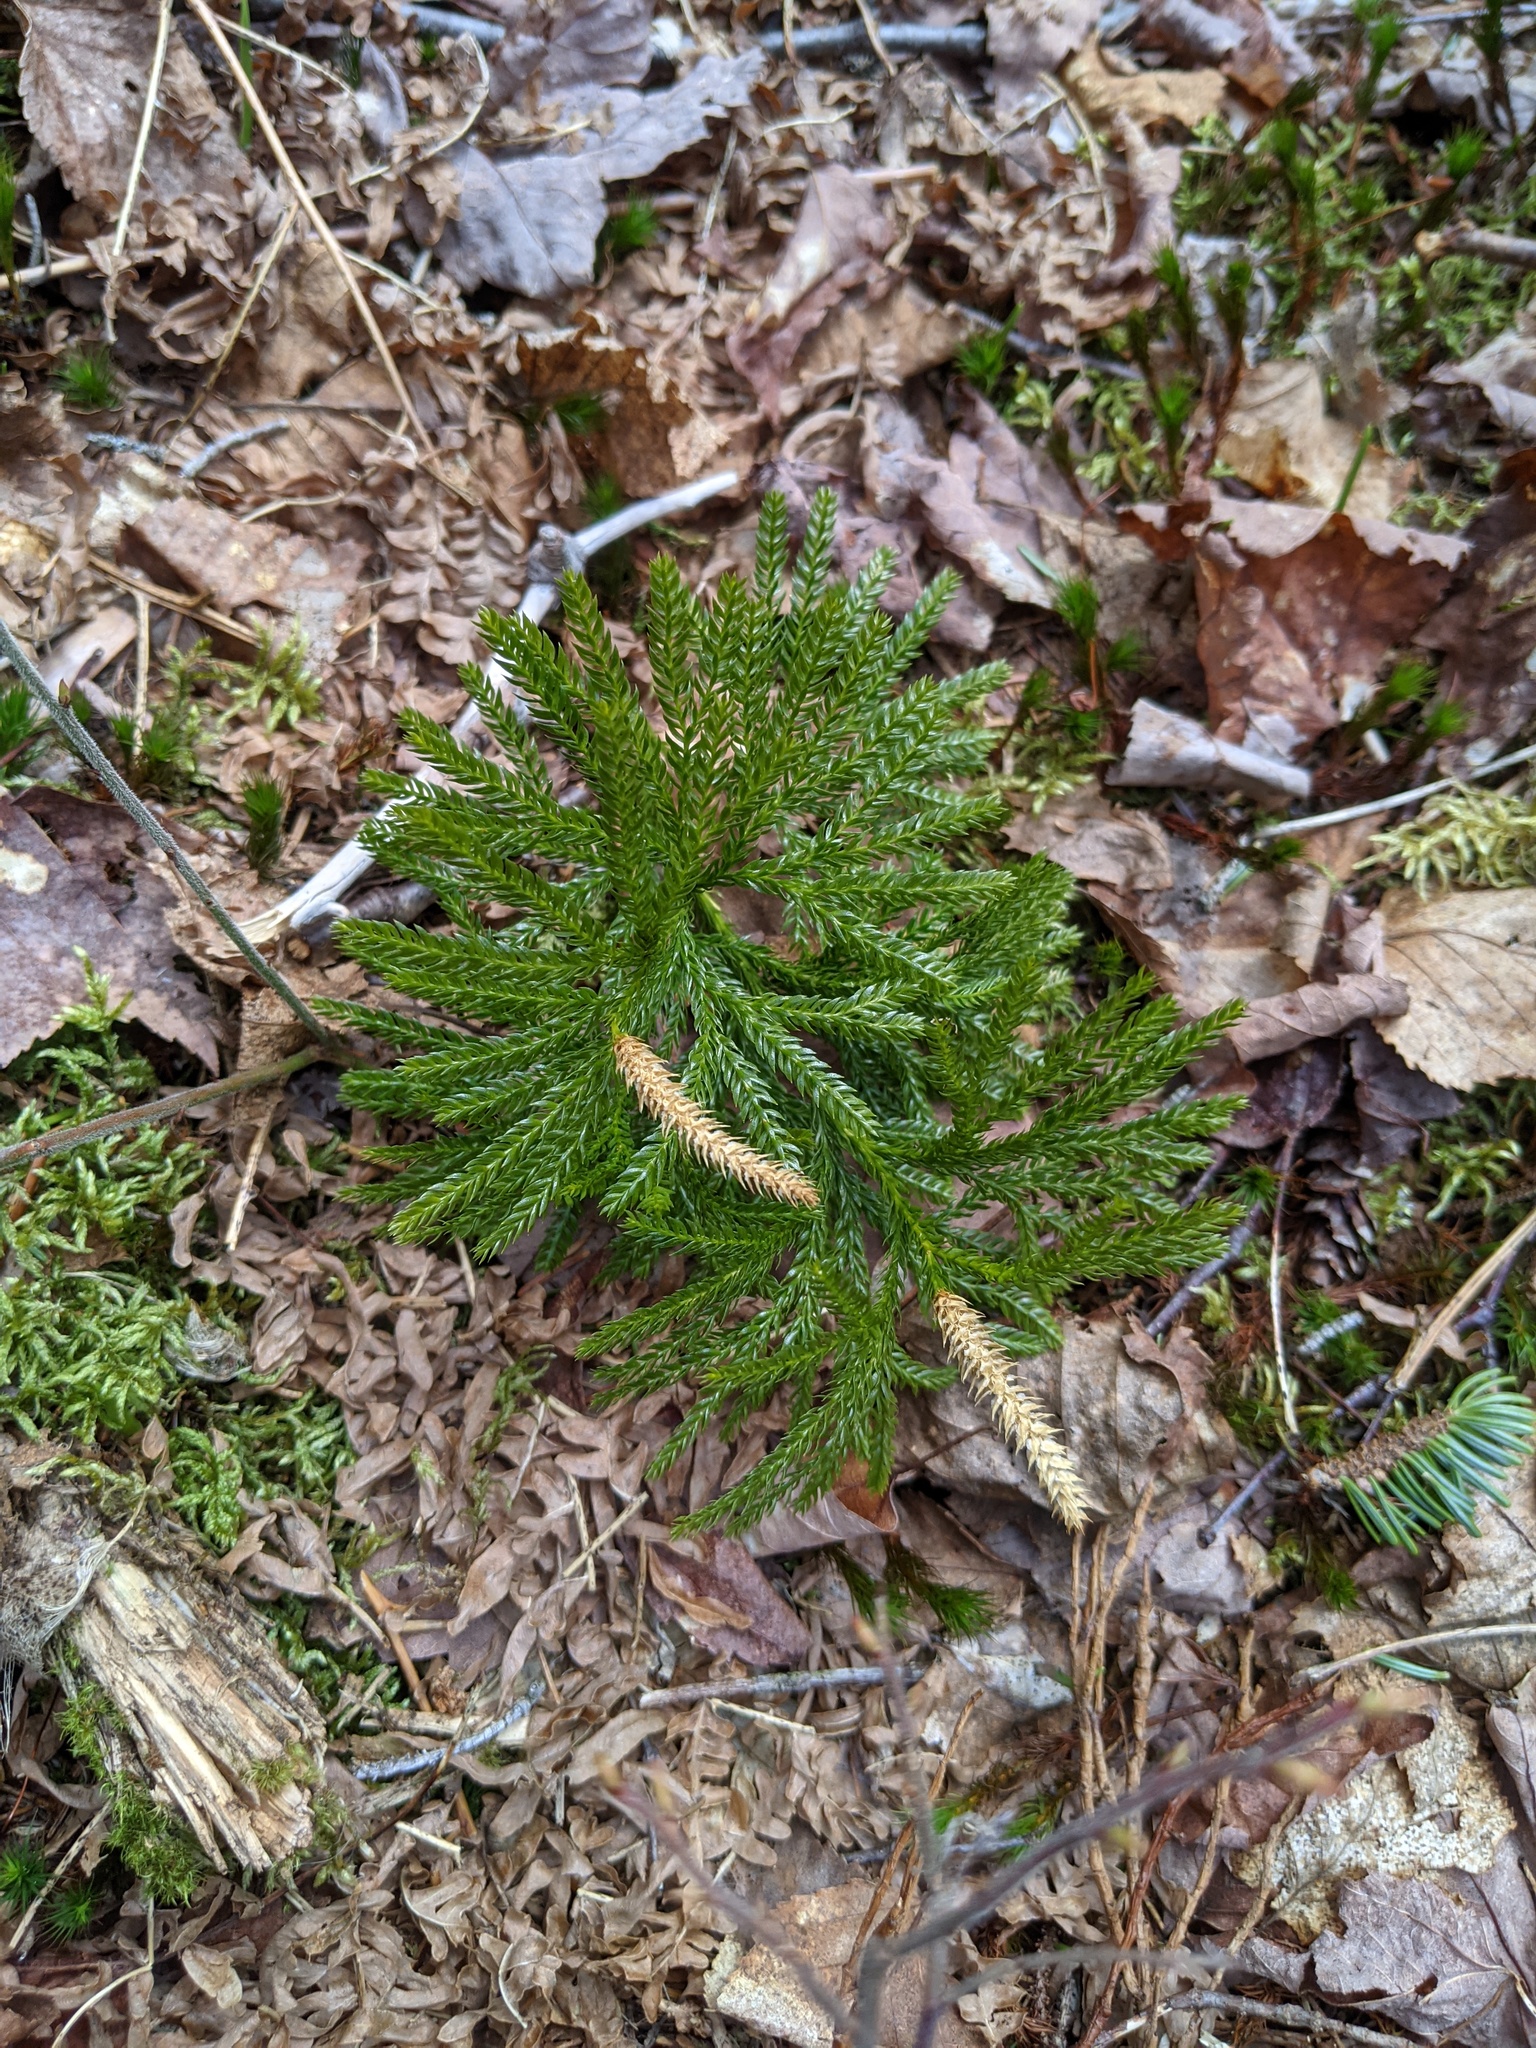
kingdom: Plantae
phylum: Tracheophyta
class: Lycopodiopsida
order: Lycopodiales
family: Lycopodiaceae
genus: Dendrolycopodium
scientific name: Dendrolycopodium dendroideum
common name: Northern tree-clubmoss
